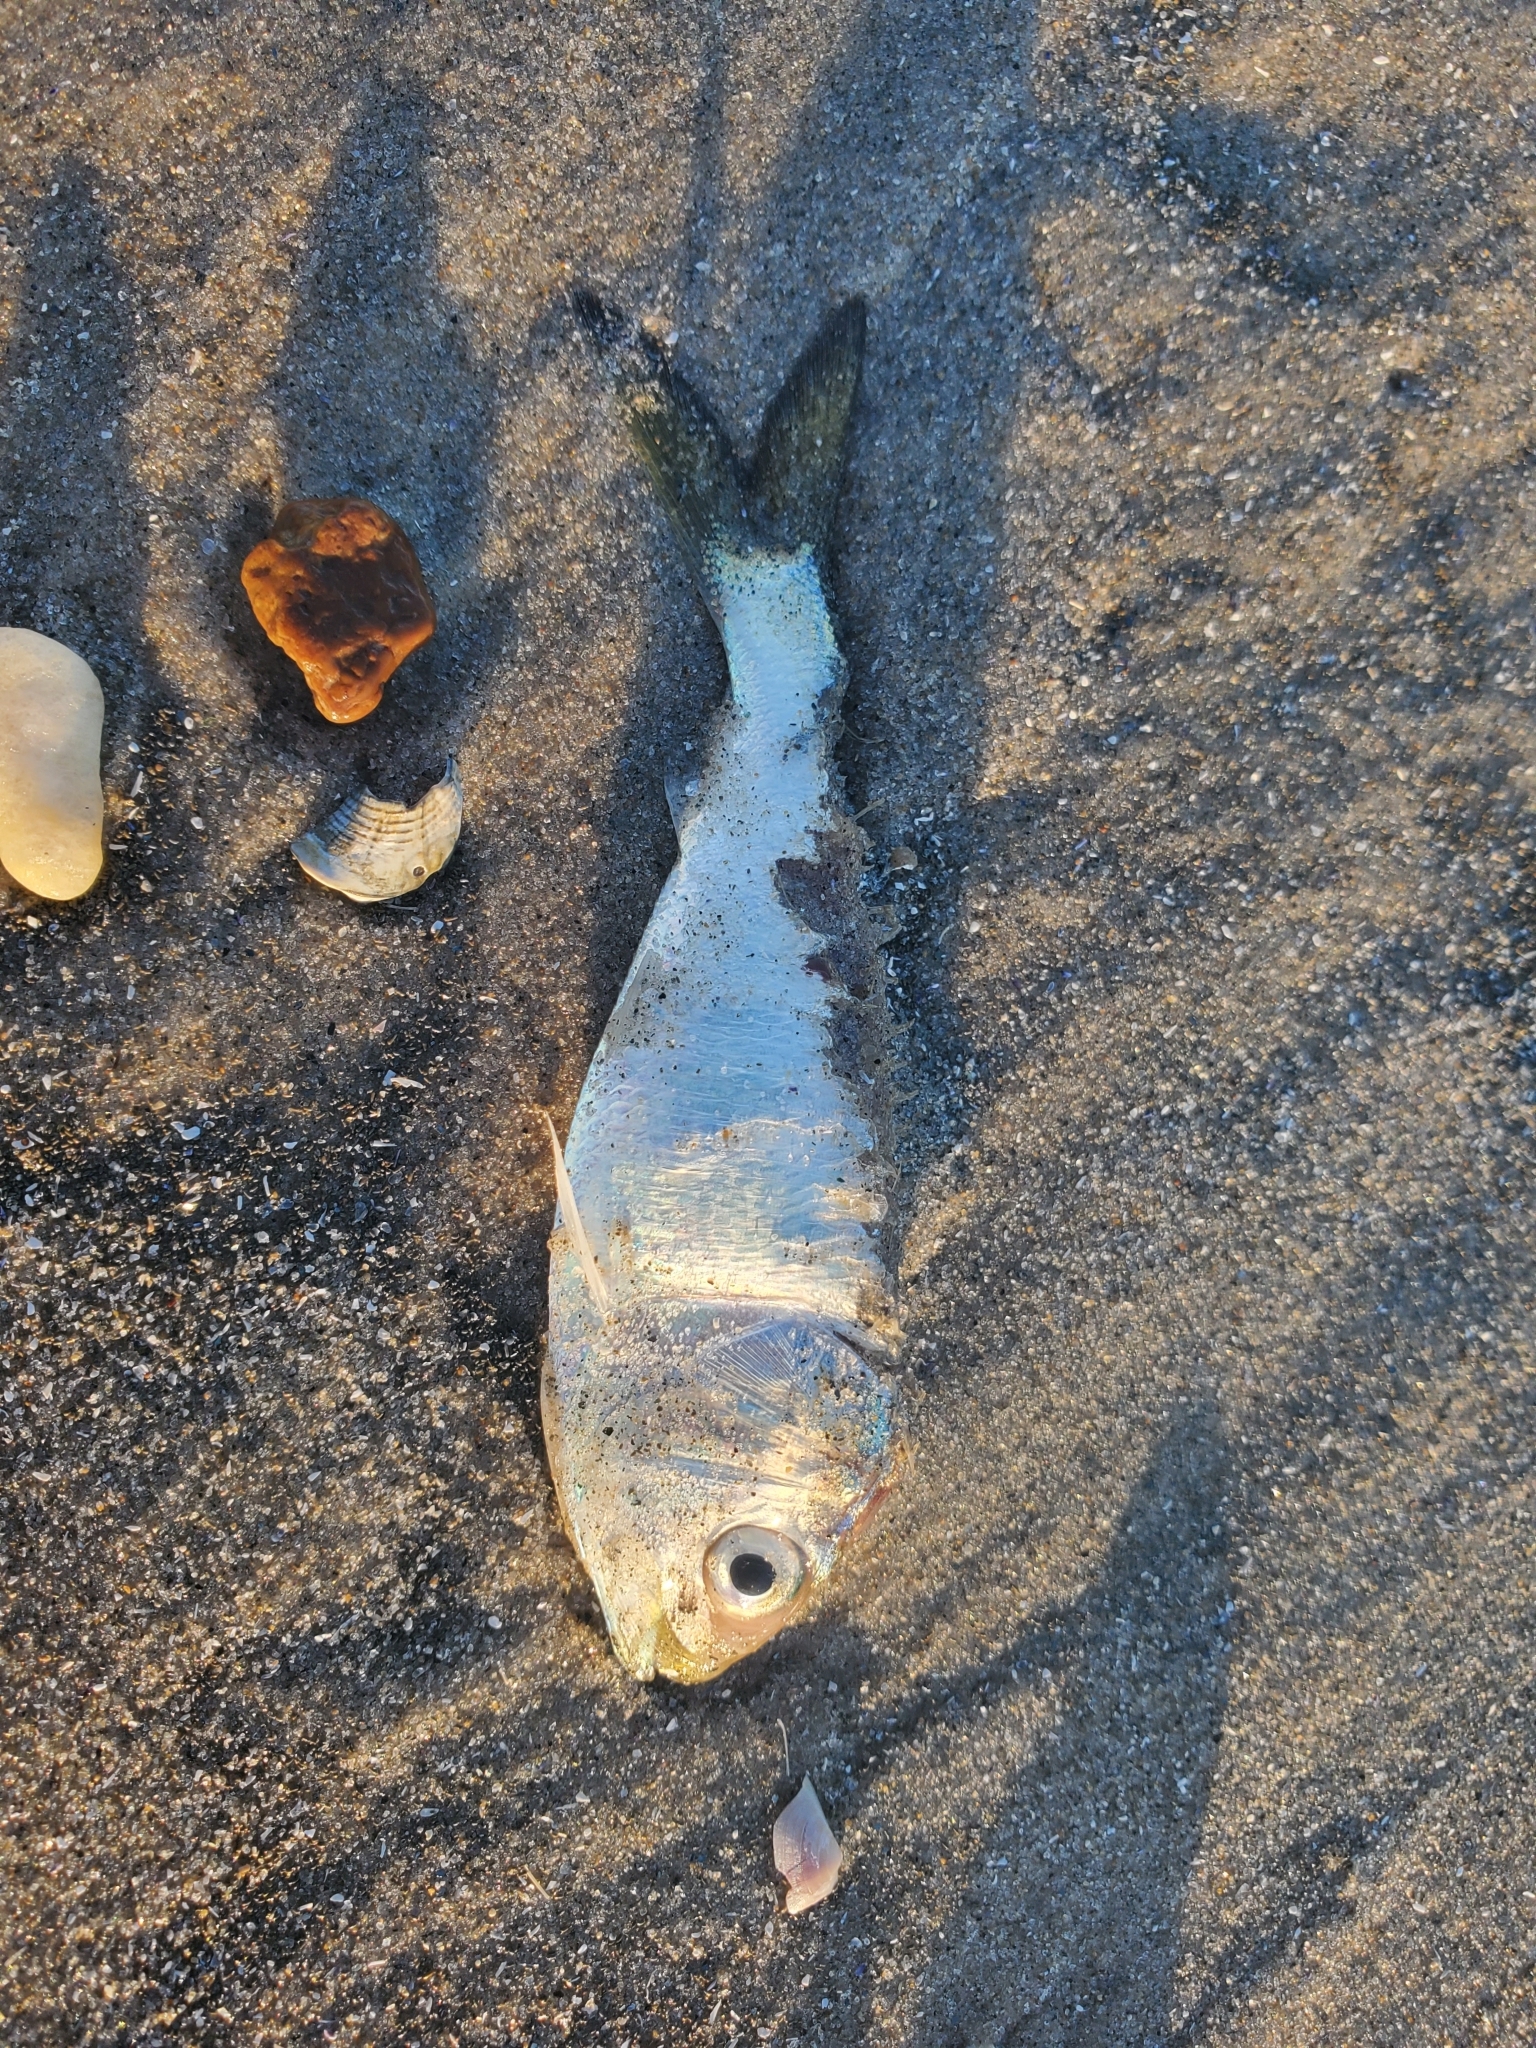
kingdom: Animalia
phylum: Chordata
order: Clupeiformes
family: Clupeidae
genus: Brevoortia
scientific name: Brevoortia tyrannus
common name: Atlantic menhaden
